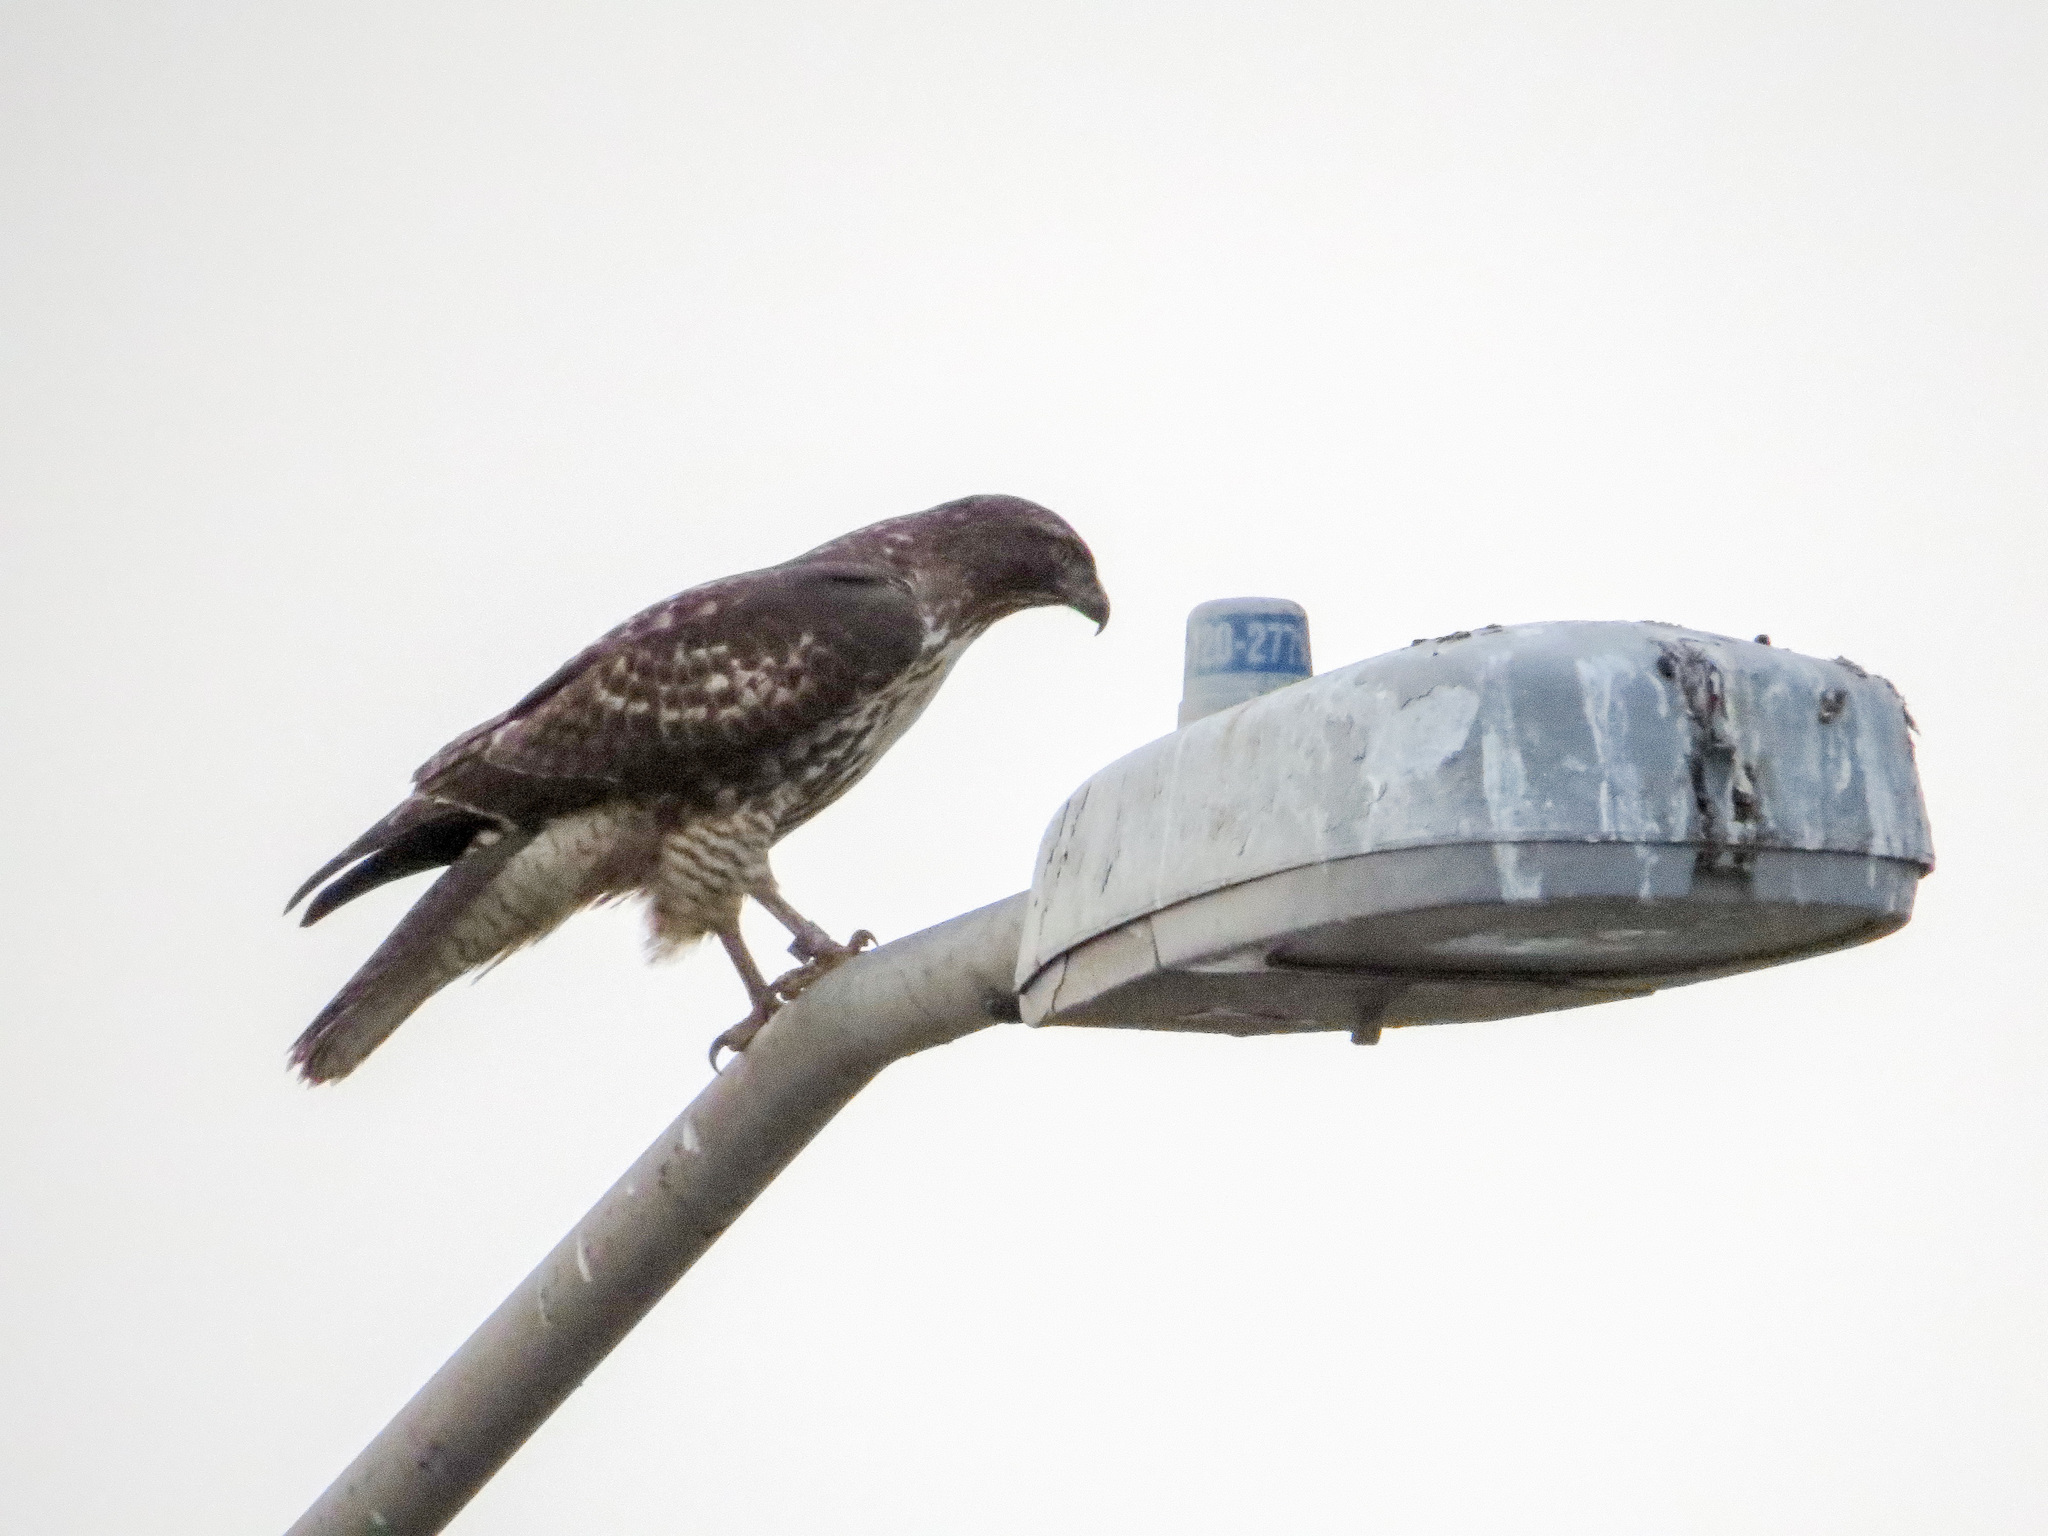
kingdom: Animalia
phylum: Chordata
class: Aves
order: Accipitriformes
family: Accipitridae
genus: Buteo
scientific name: Buteo jamaicensis
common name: Red-tailed hawk
